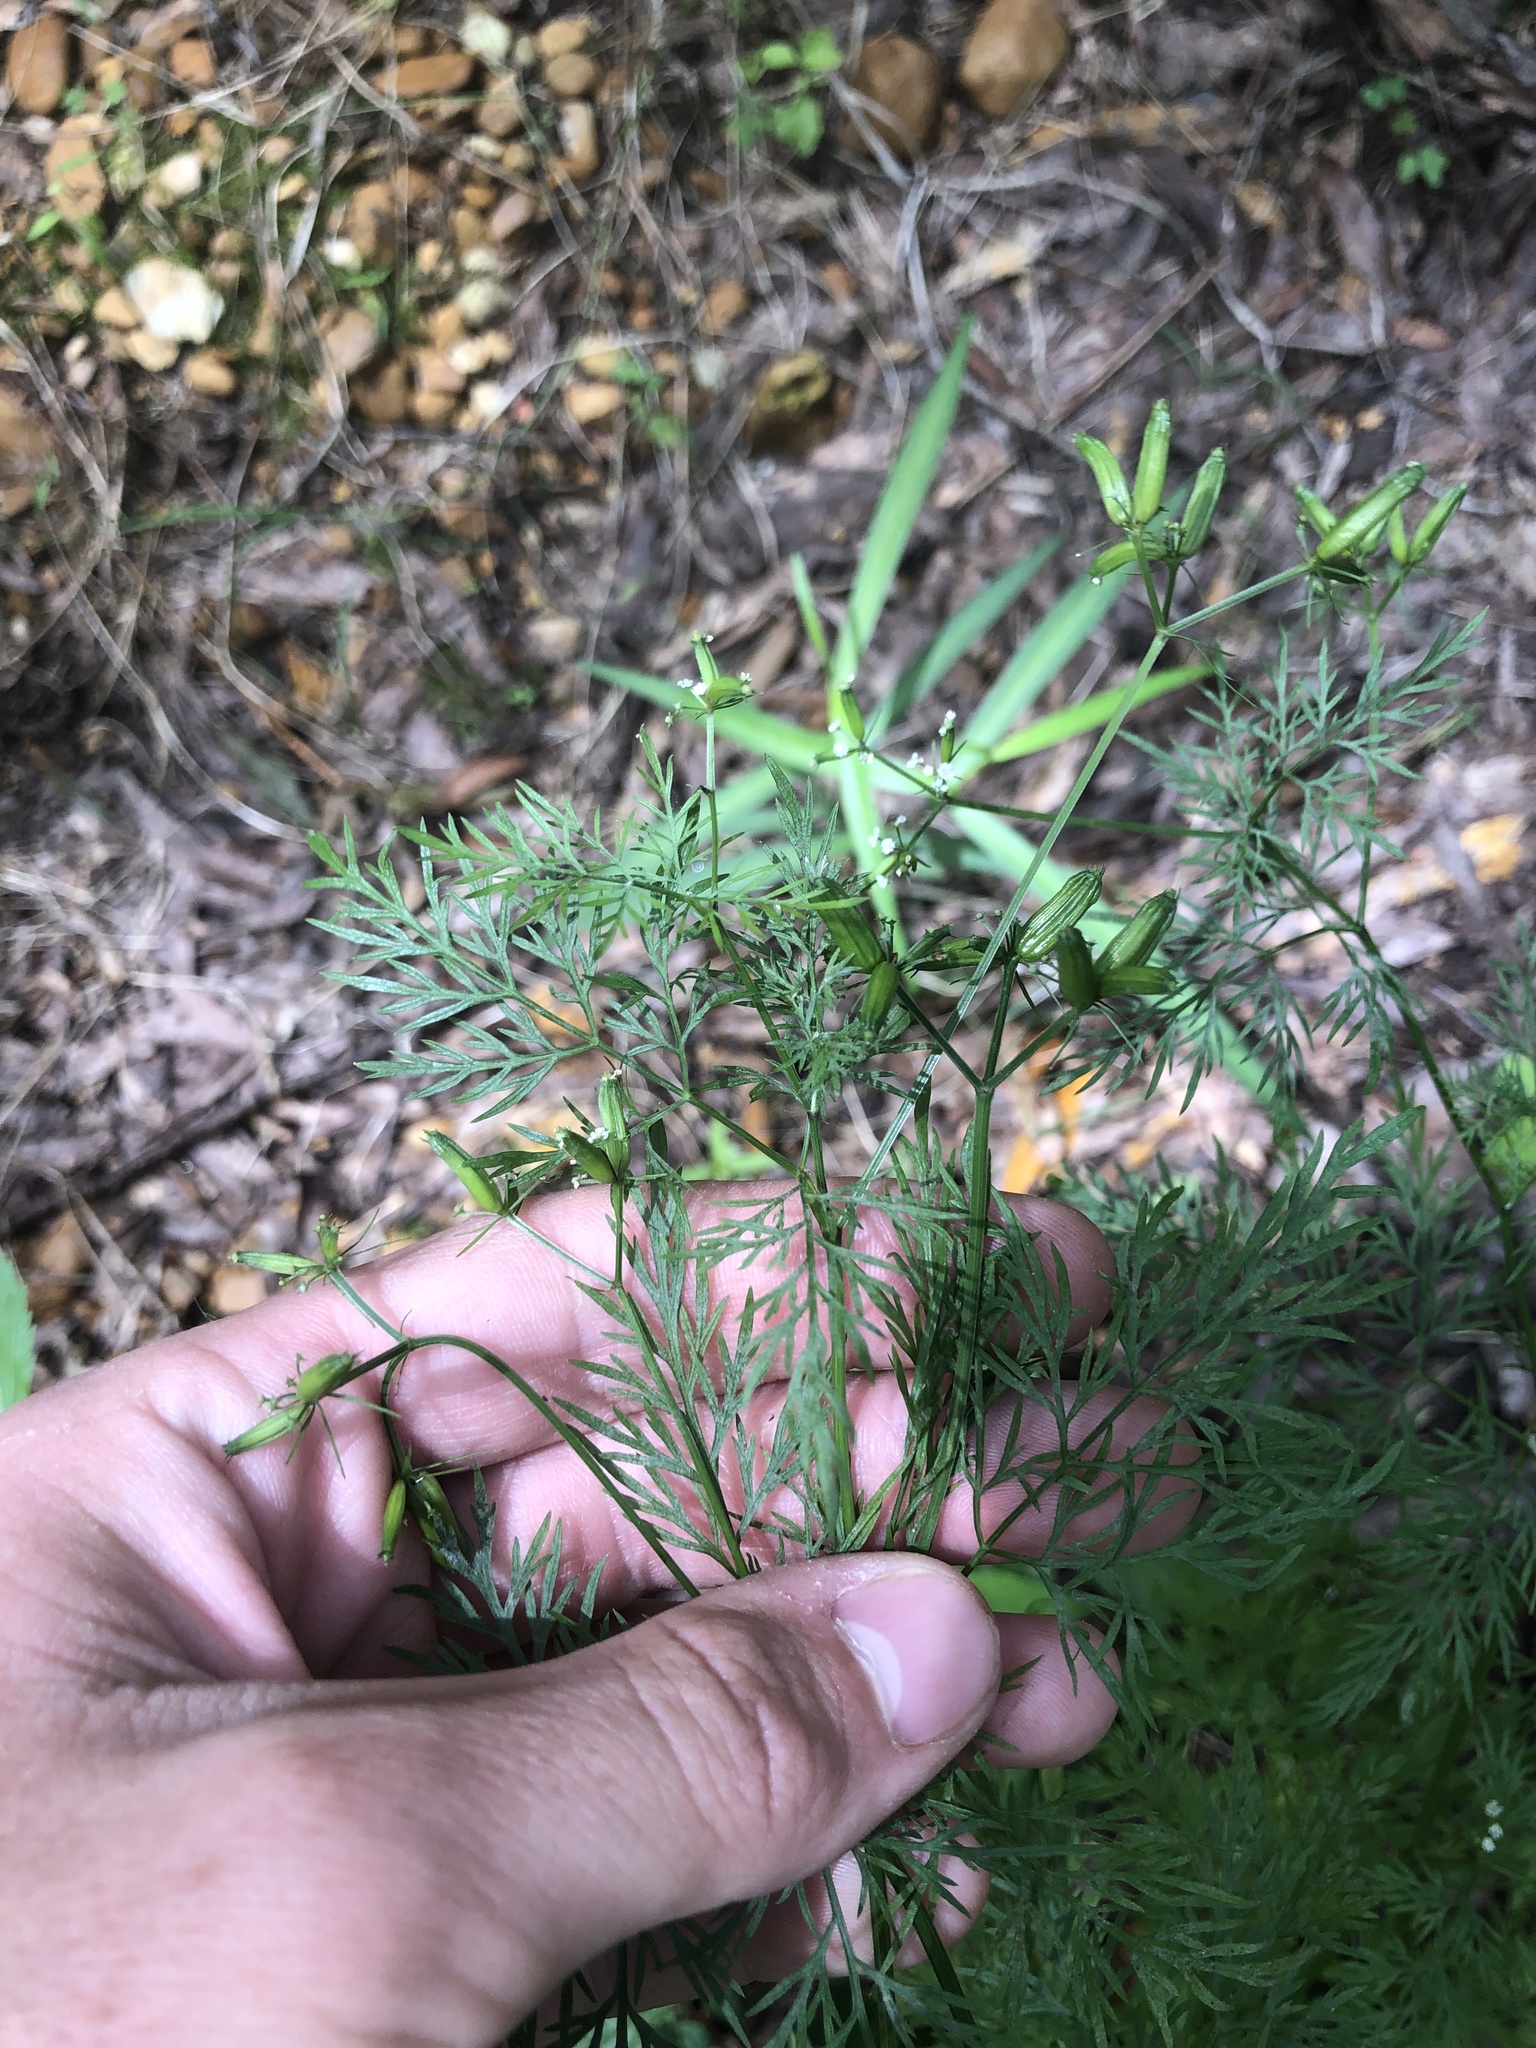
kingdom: Plantae
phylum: Tracheophyta
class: Magnoliopsida
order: Apiales
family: Apiaceae
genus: Trepocarpus
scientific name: Trepocarpus aethusae
